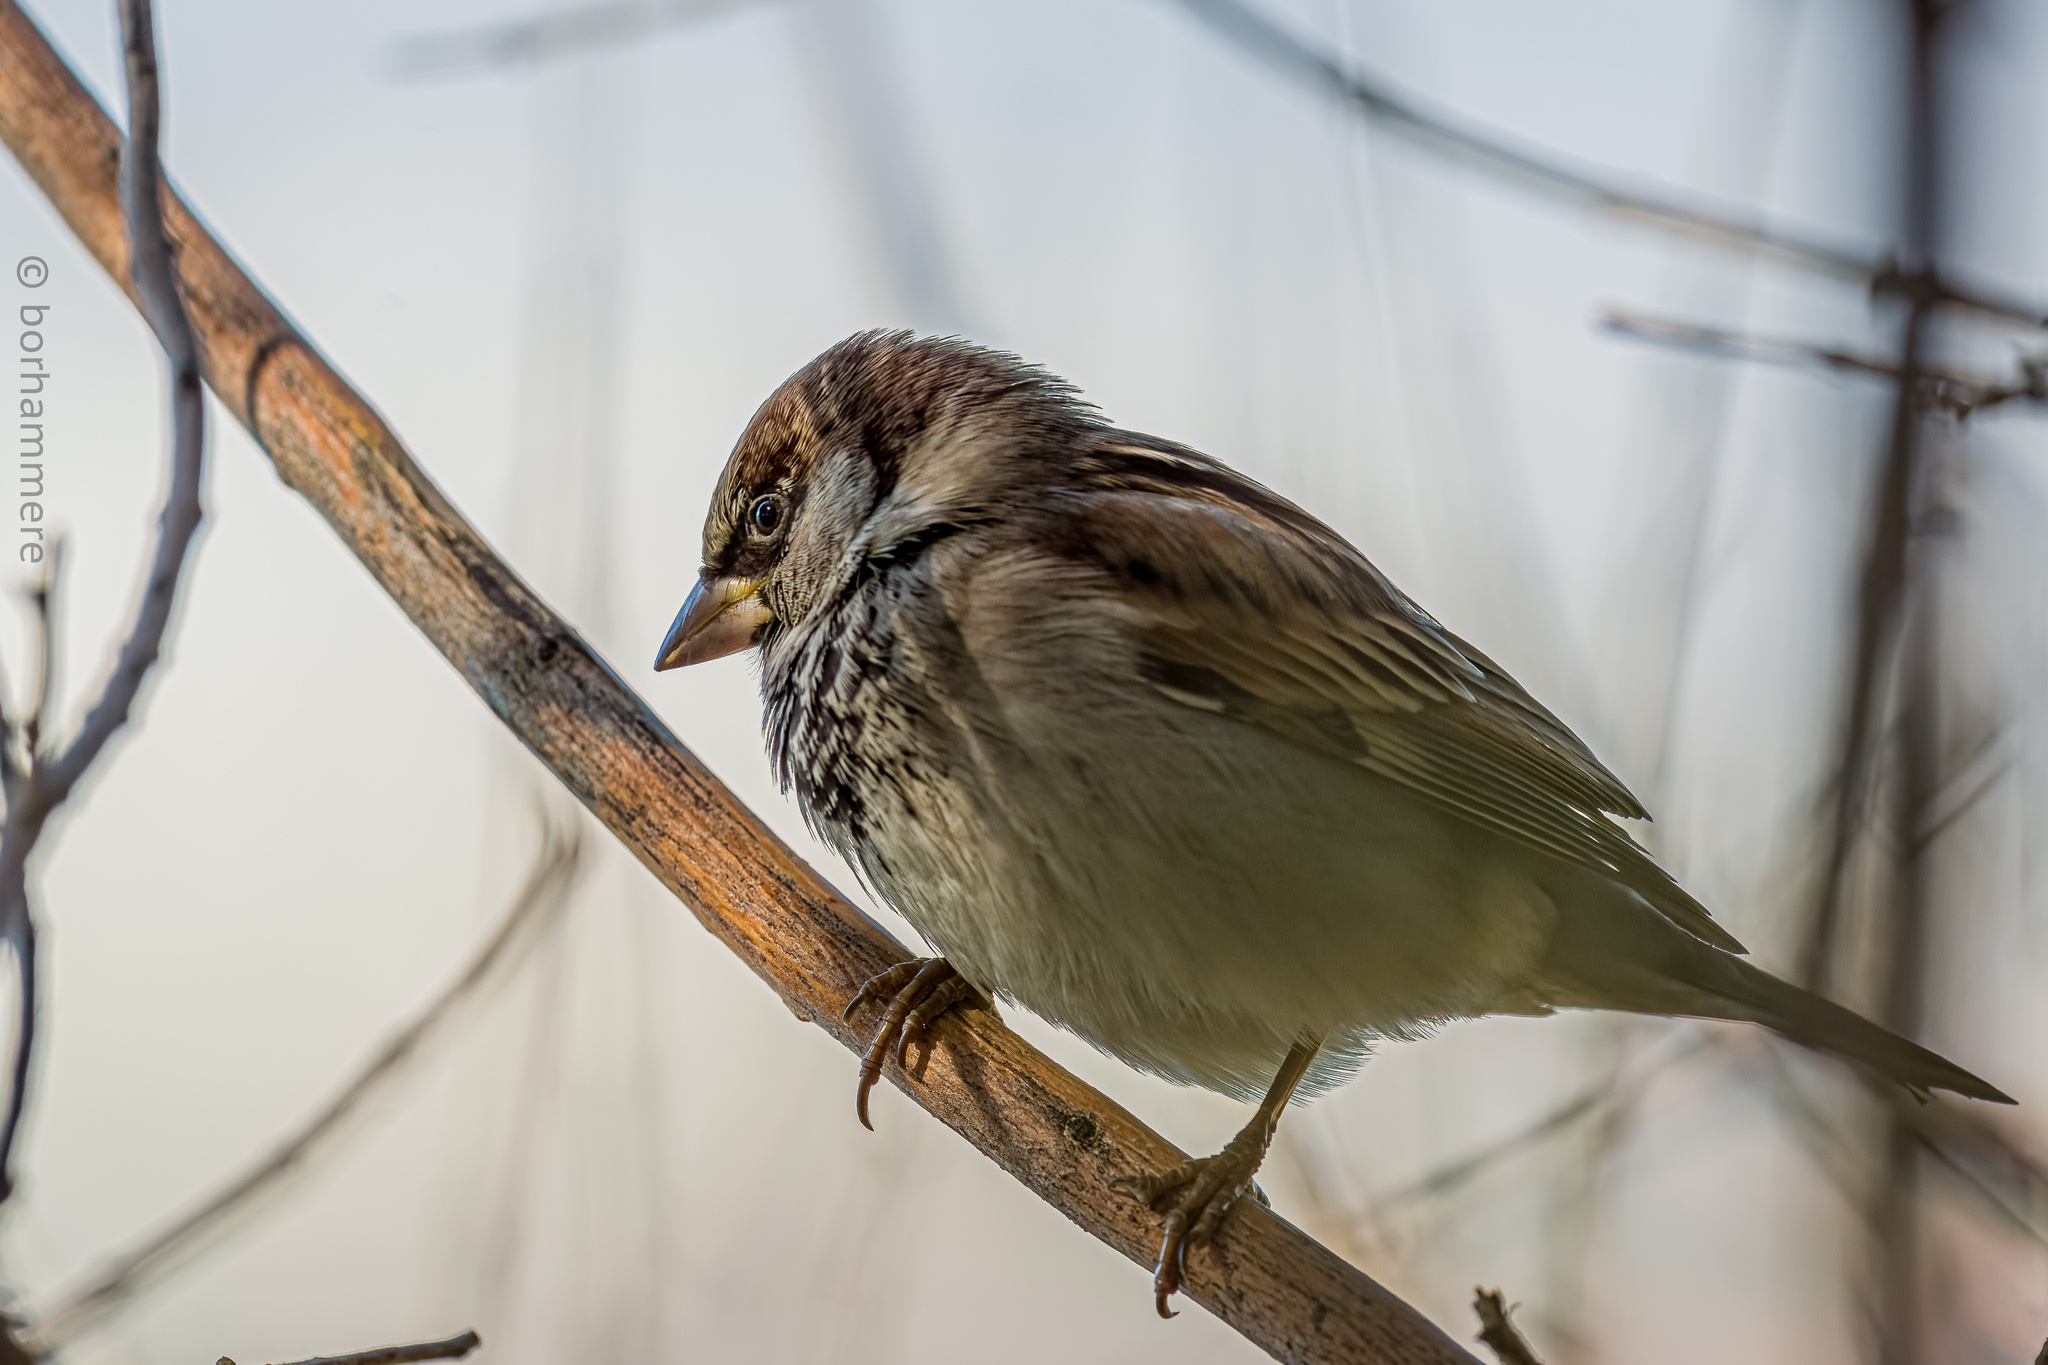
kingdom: Animalia
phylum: Chordata
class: Aves
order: Passeriformes
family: Passeridae
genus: Passer
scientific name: Passer domesticus
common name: House sparrow
